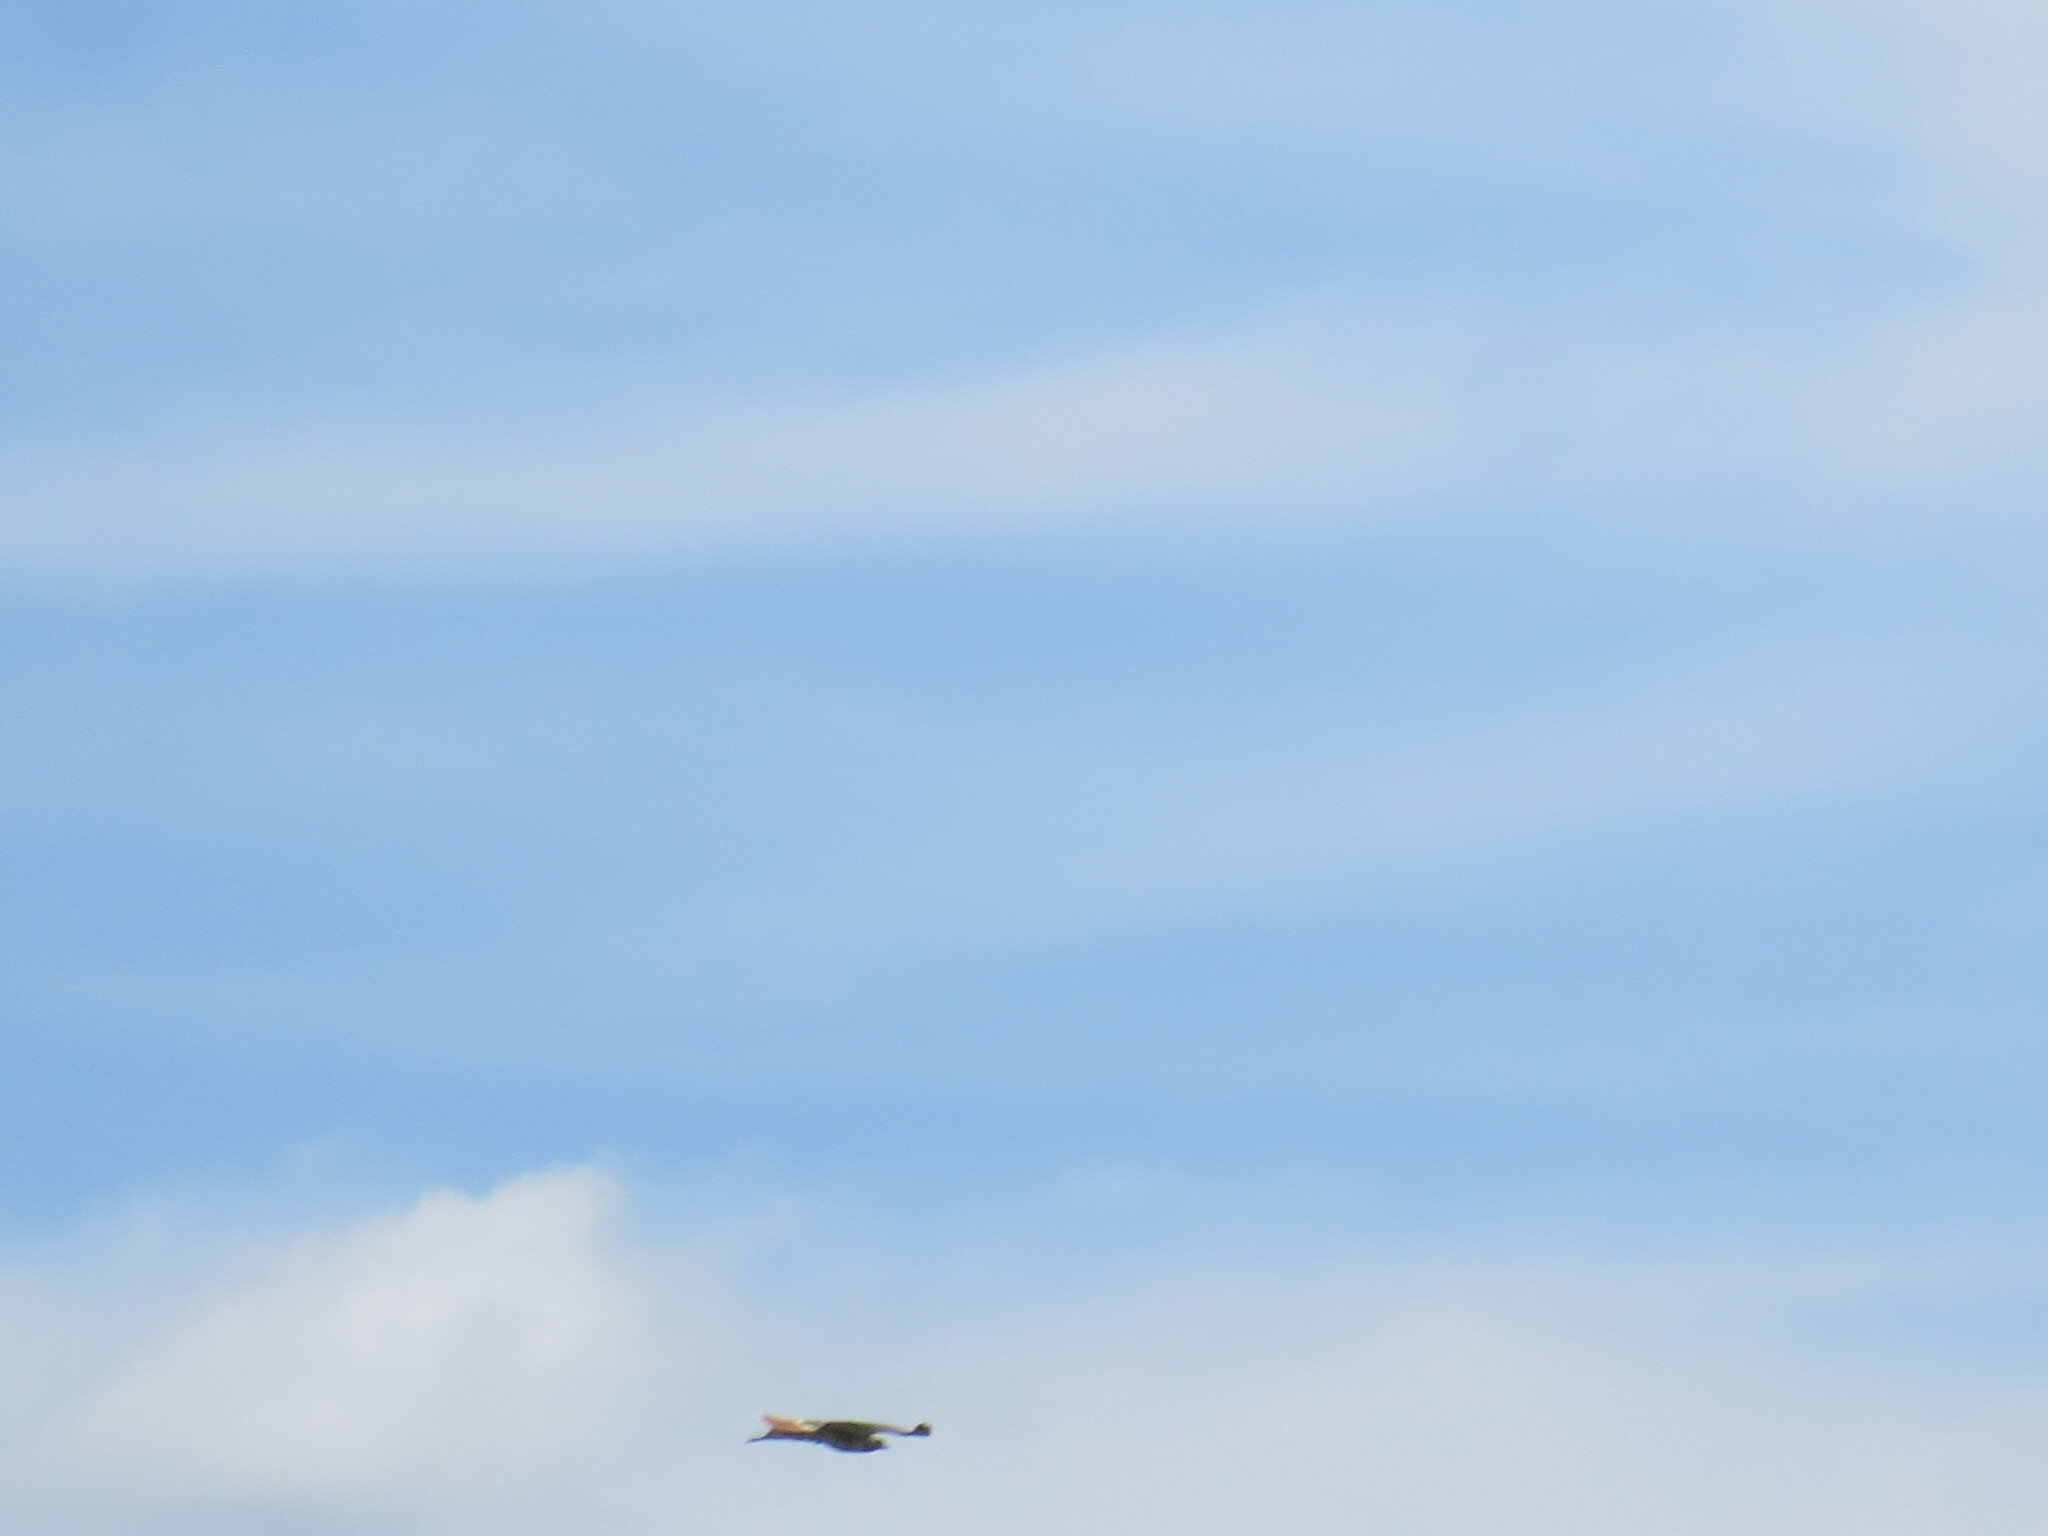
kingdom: Animalia
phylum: Chordata
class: Aves
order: Accipitriformes
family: Accipitridae
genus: Buteo
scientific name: Buteo jamaicensis
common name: Red-tailed hawk
